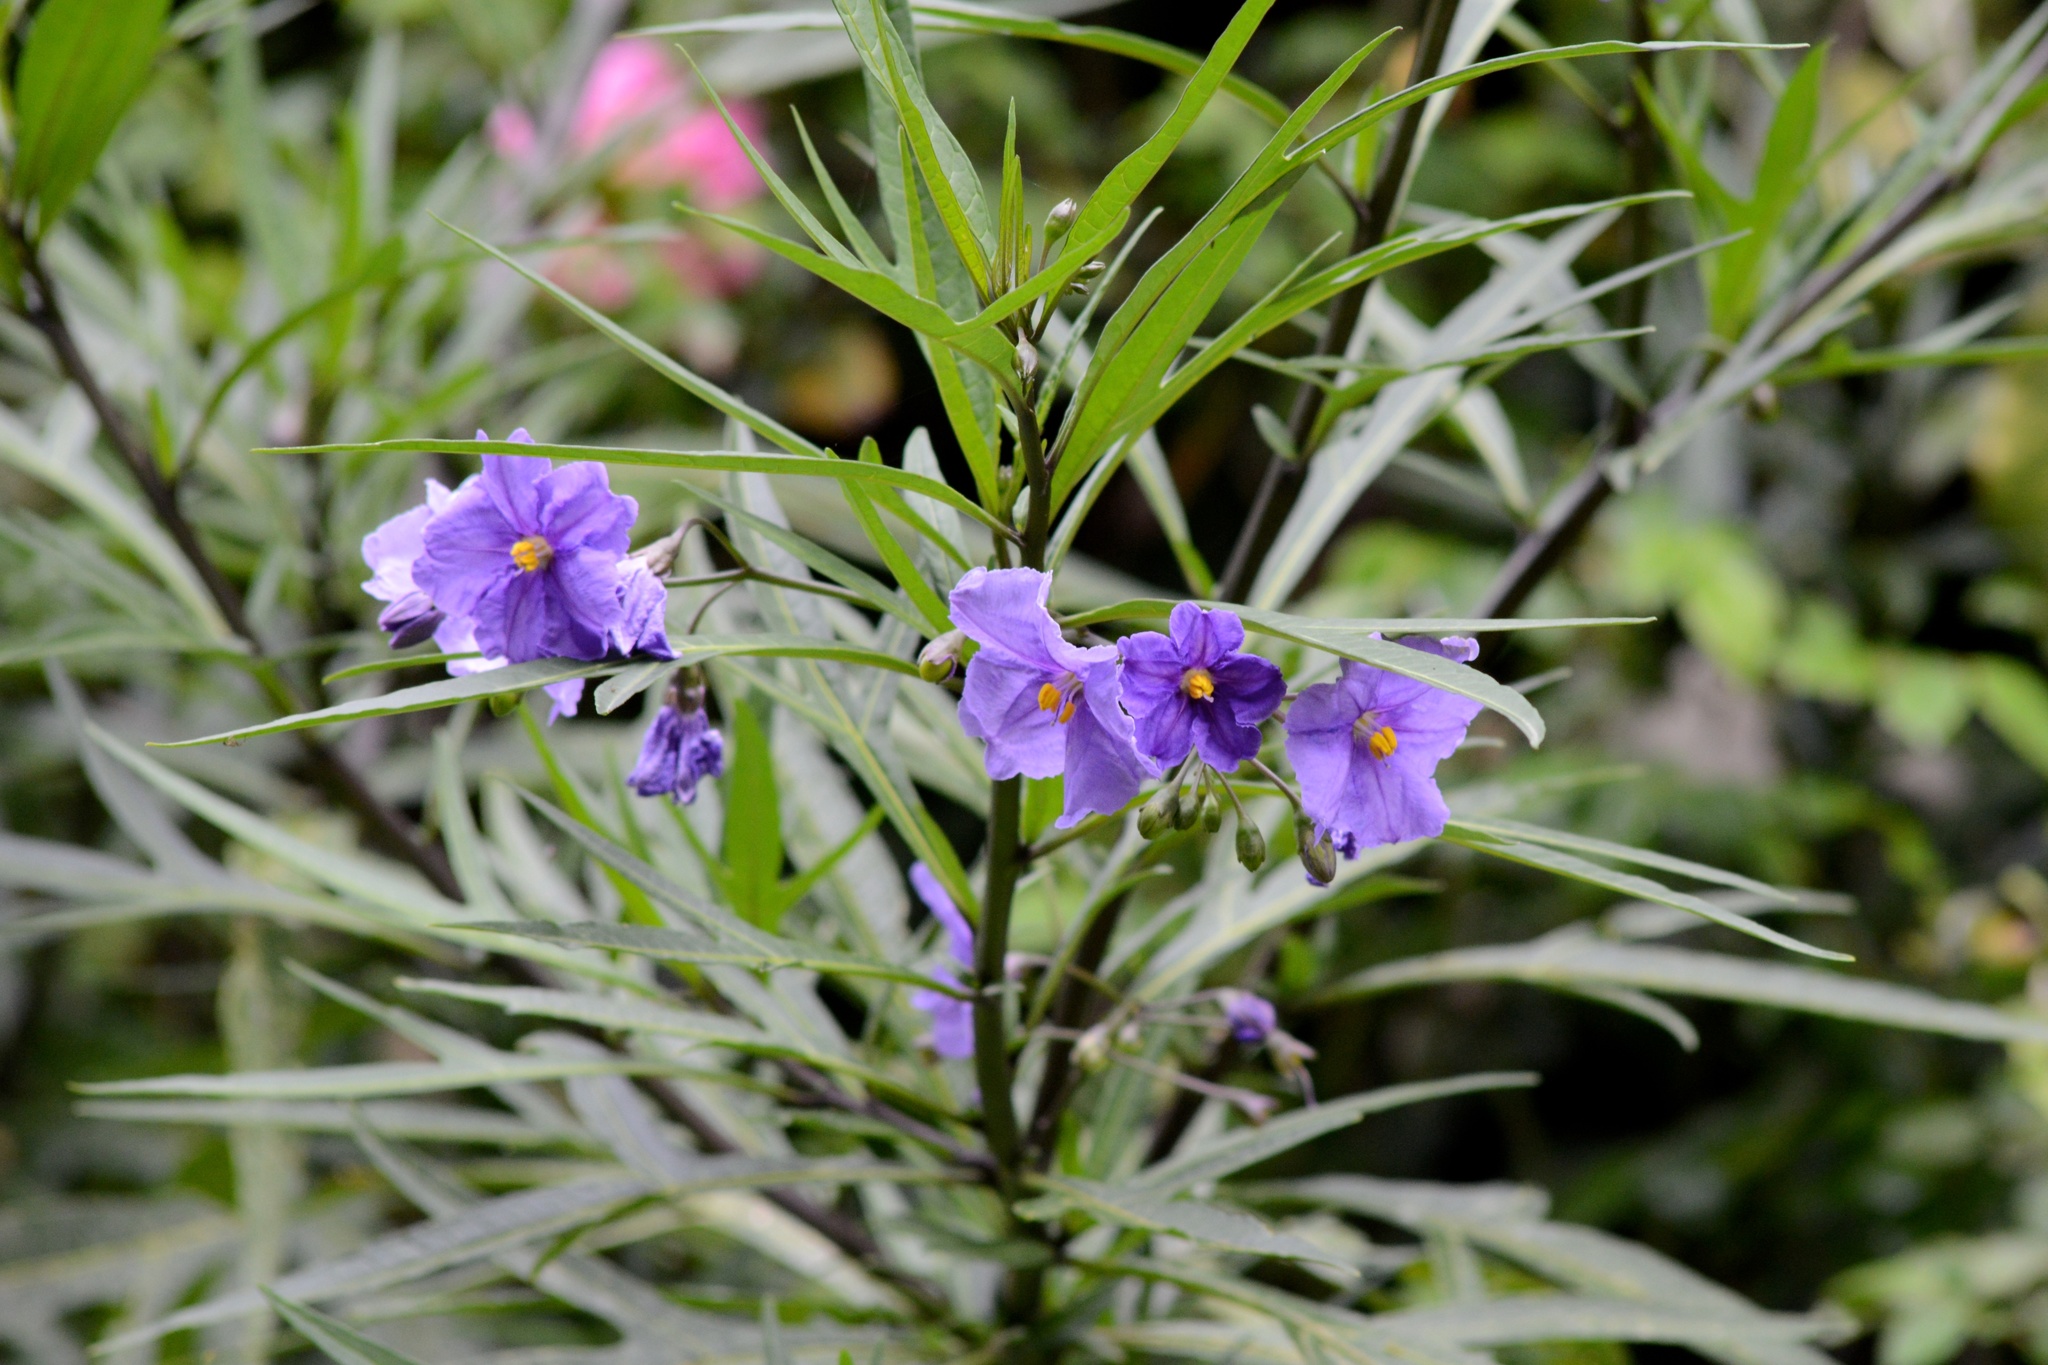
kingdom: Plantae
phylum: Tracheophyta
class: Magnoliopsida
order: Solanales
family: Solanaceae
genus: Solanum
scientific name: Solanum laciniatum
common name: Kangaroo-apple
